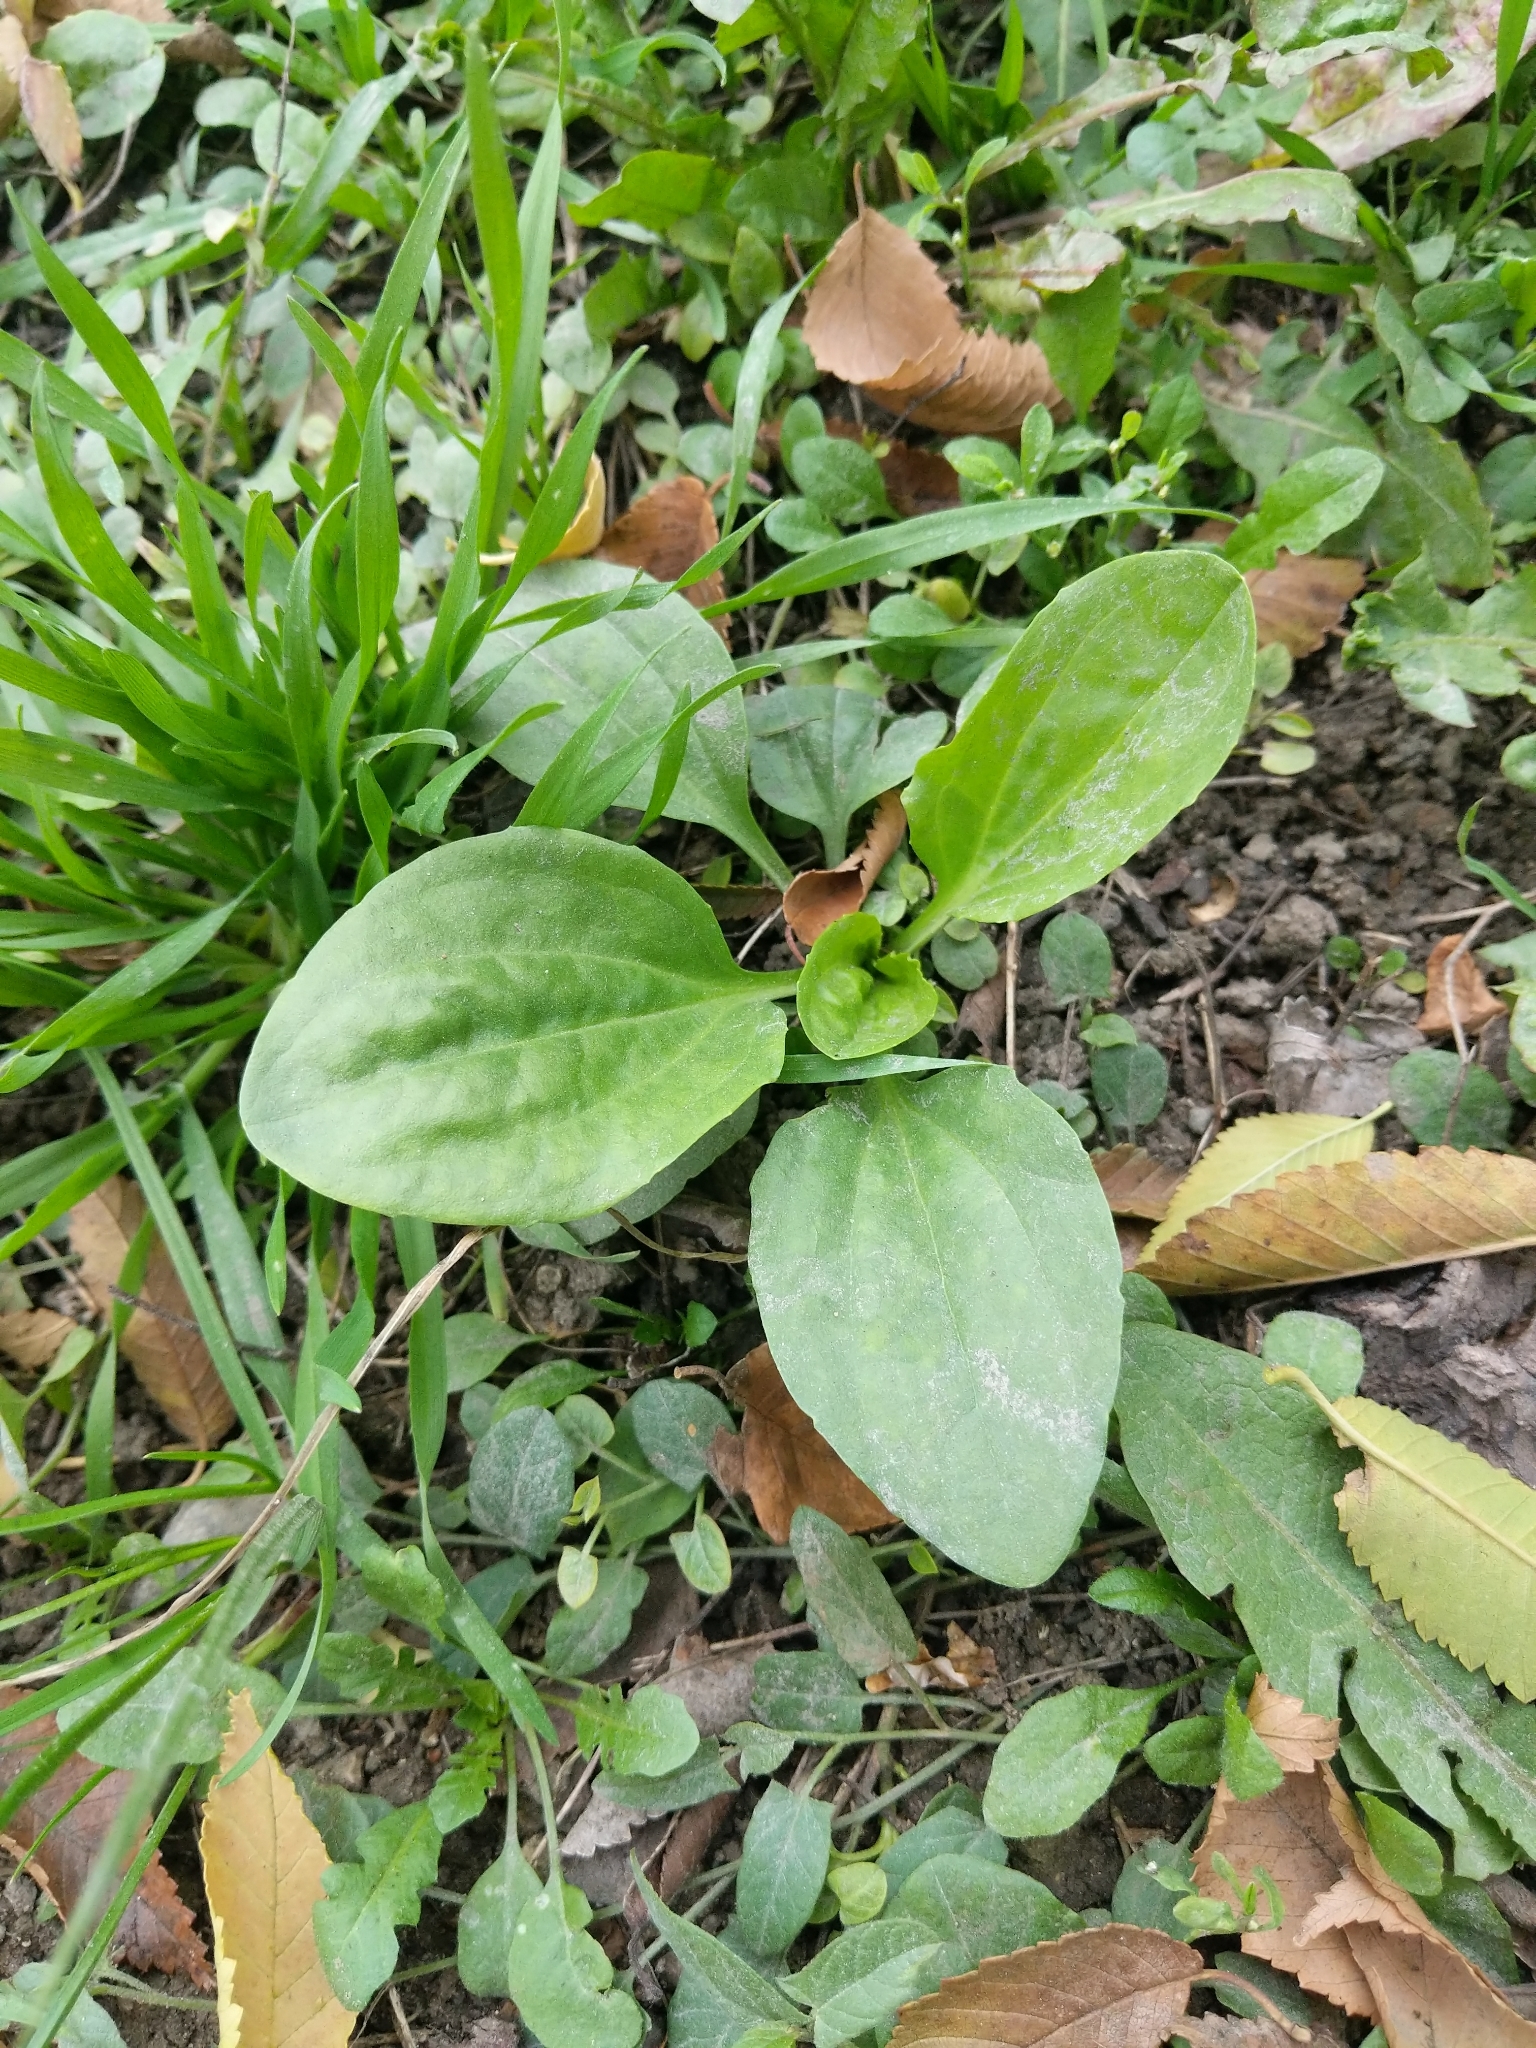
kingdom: Plantae
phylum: Tracheophyta
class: Magnoliopsida
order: Lamiales
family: Plantaginaceae
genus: Plantago
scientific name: Plantago major
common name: Common plantain
